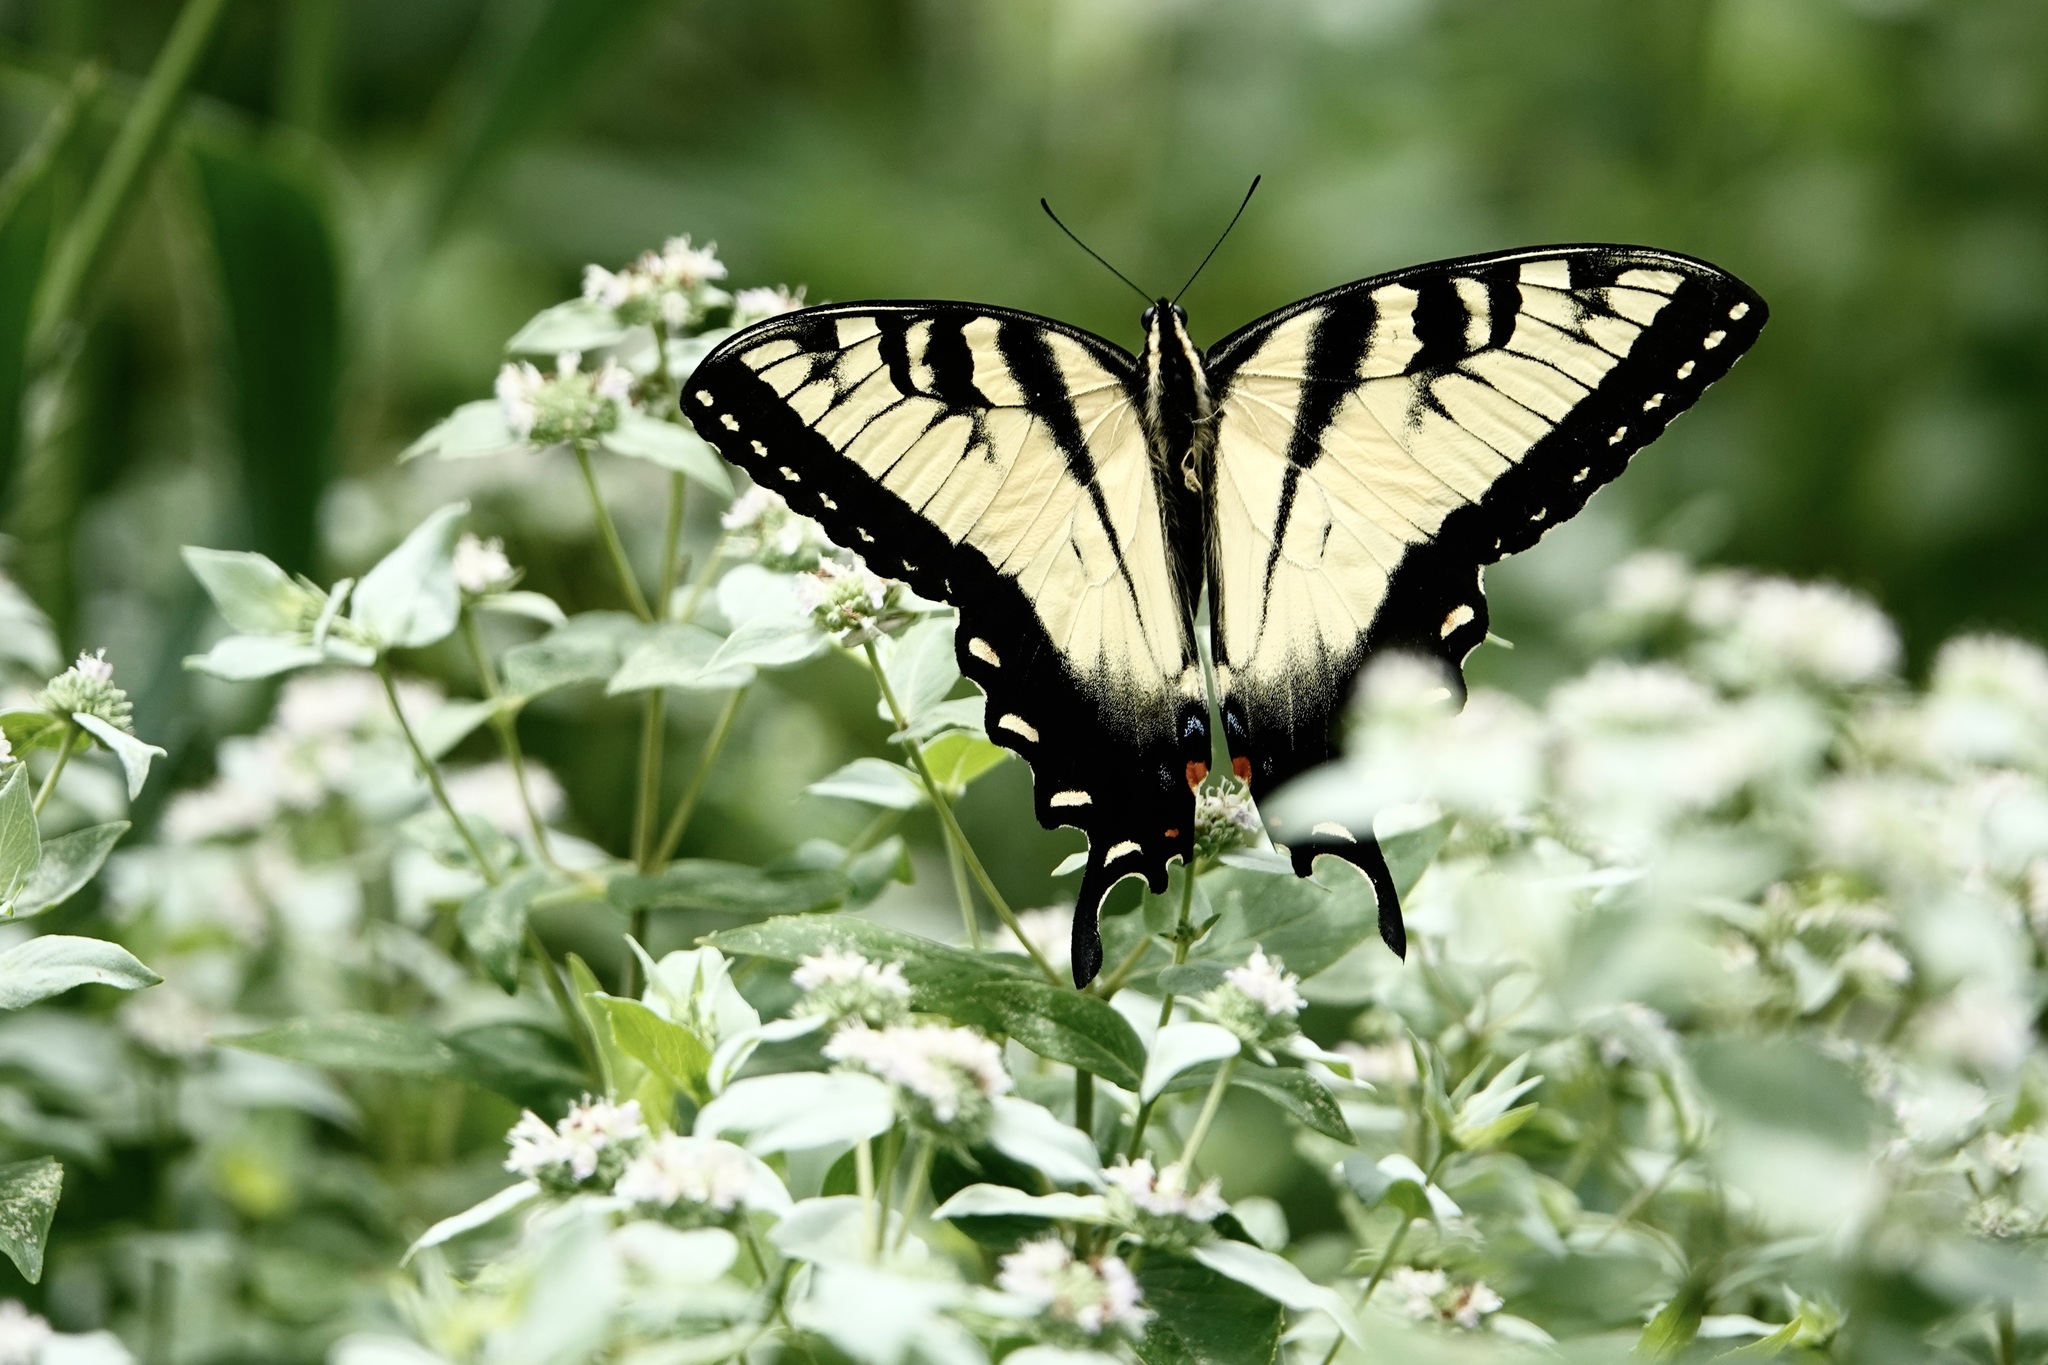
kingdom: Animalia
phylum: Arthropoda
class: Insecta
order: Lepidoptera
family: Papilionidae
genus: Papilio
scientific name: Papilio glaucus
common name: Tiger swallowtail
